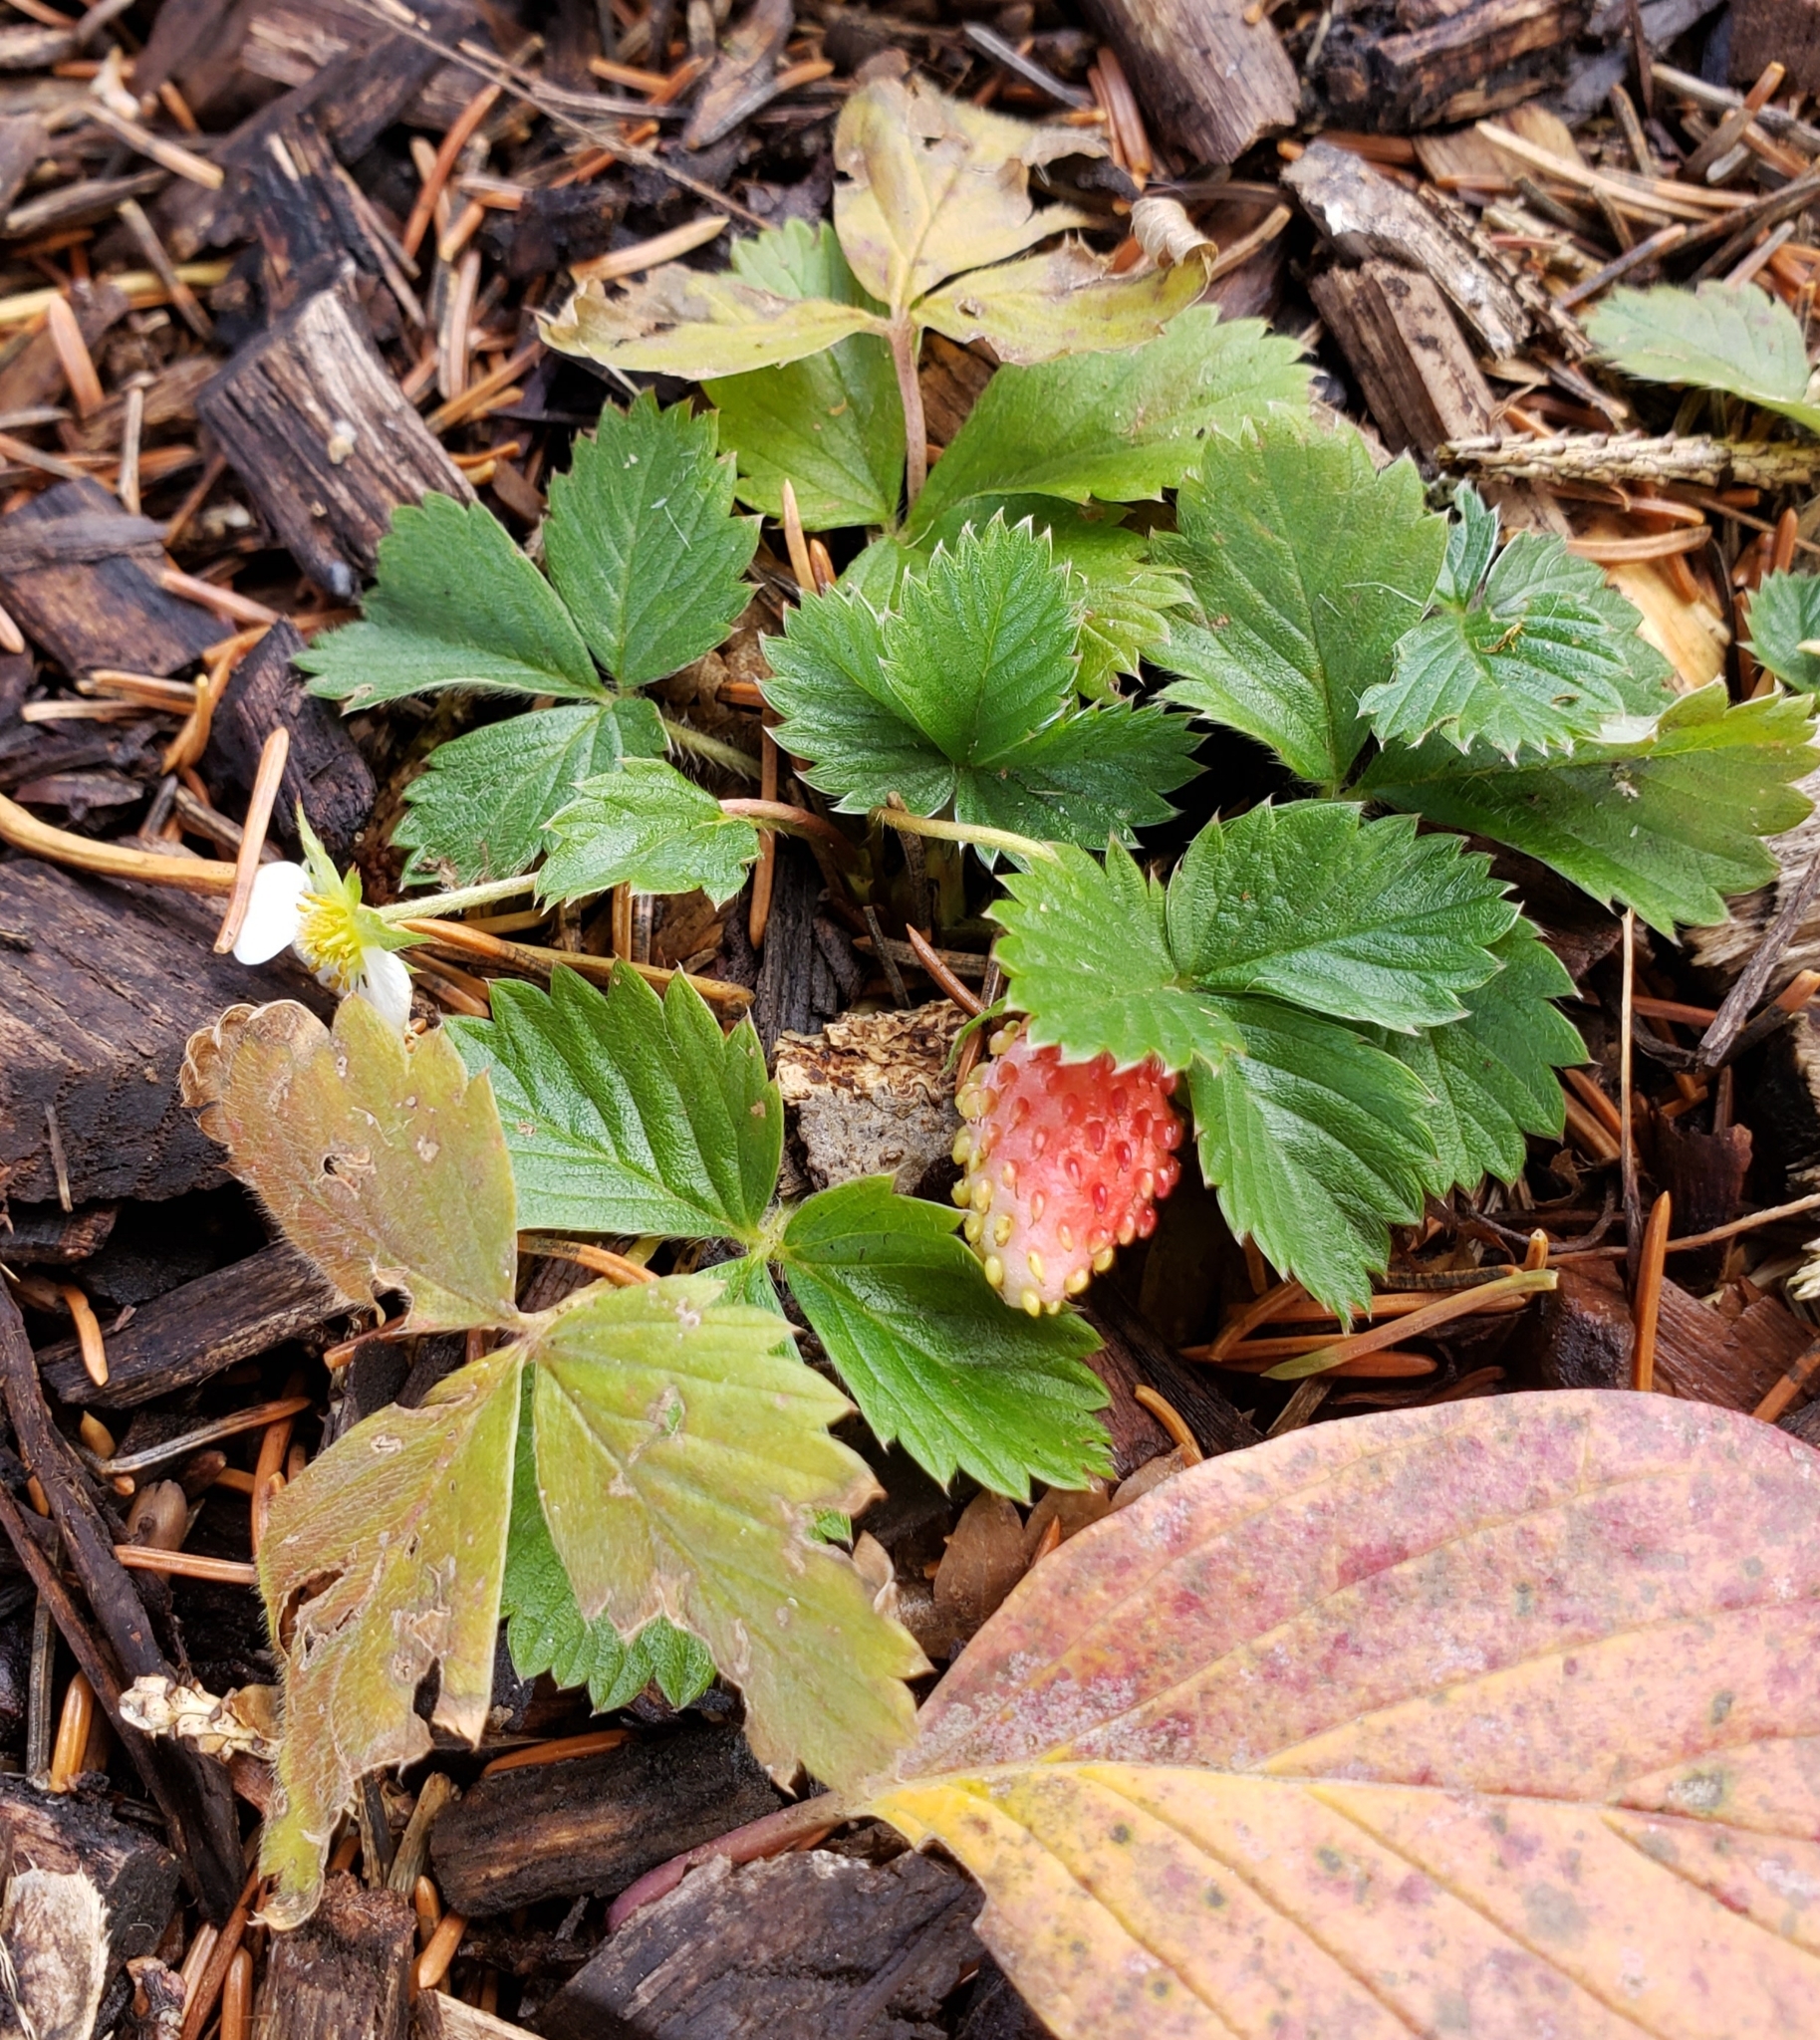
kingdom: Plantae
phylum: Tracheophyta
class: Magnoliopsida
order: Rosales
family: Rosaceae
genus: Fragaria
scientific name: Fragaria vesca
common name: Wild strawberry
